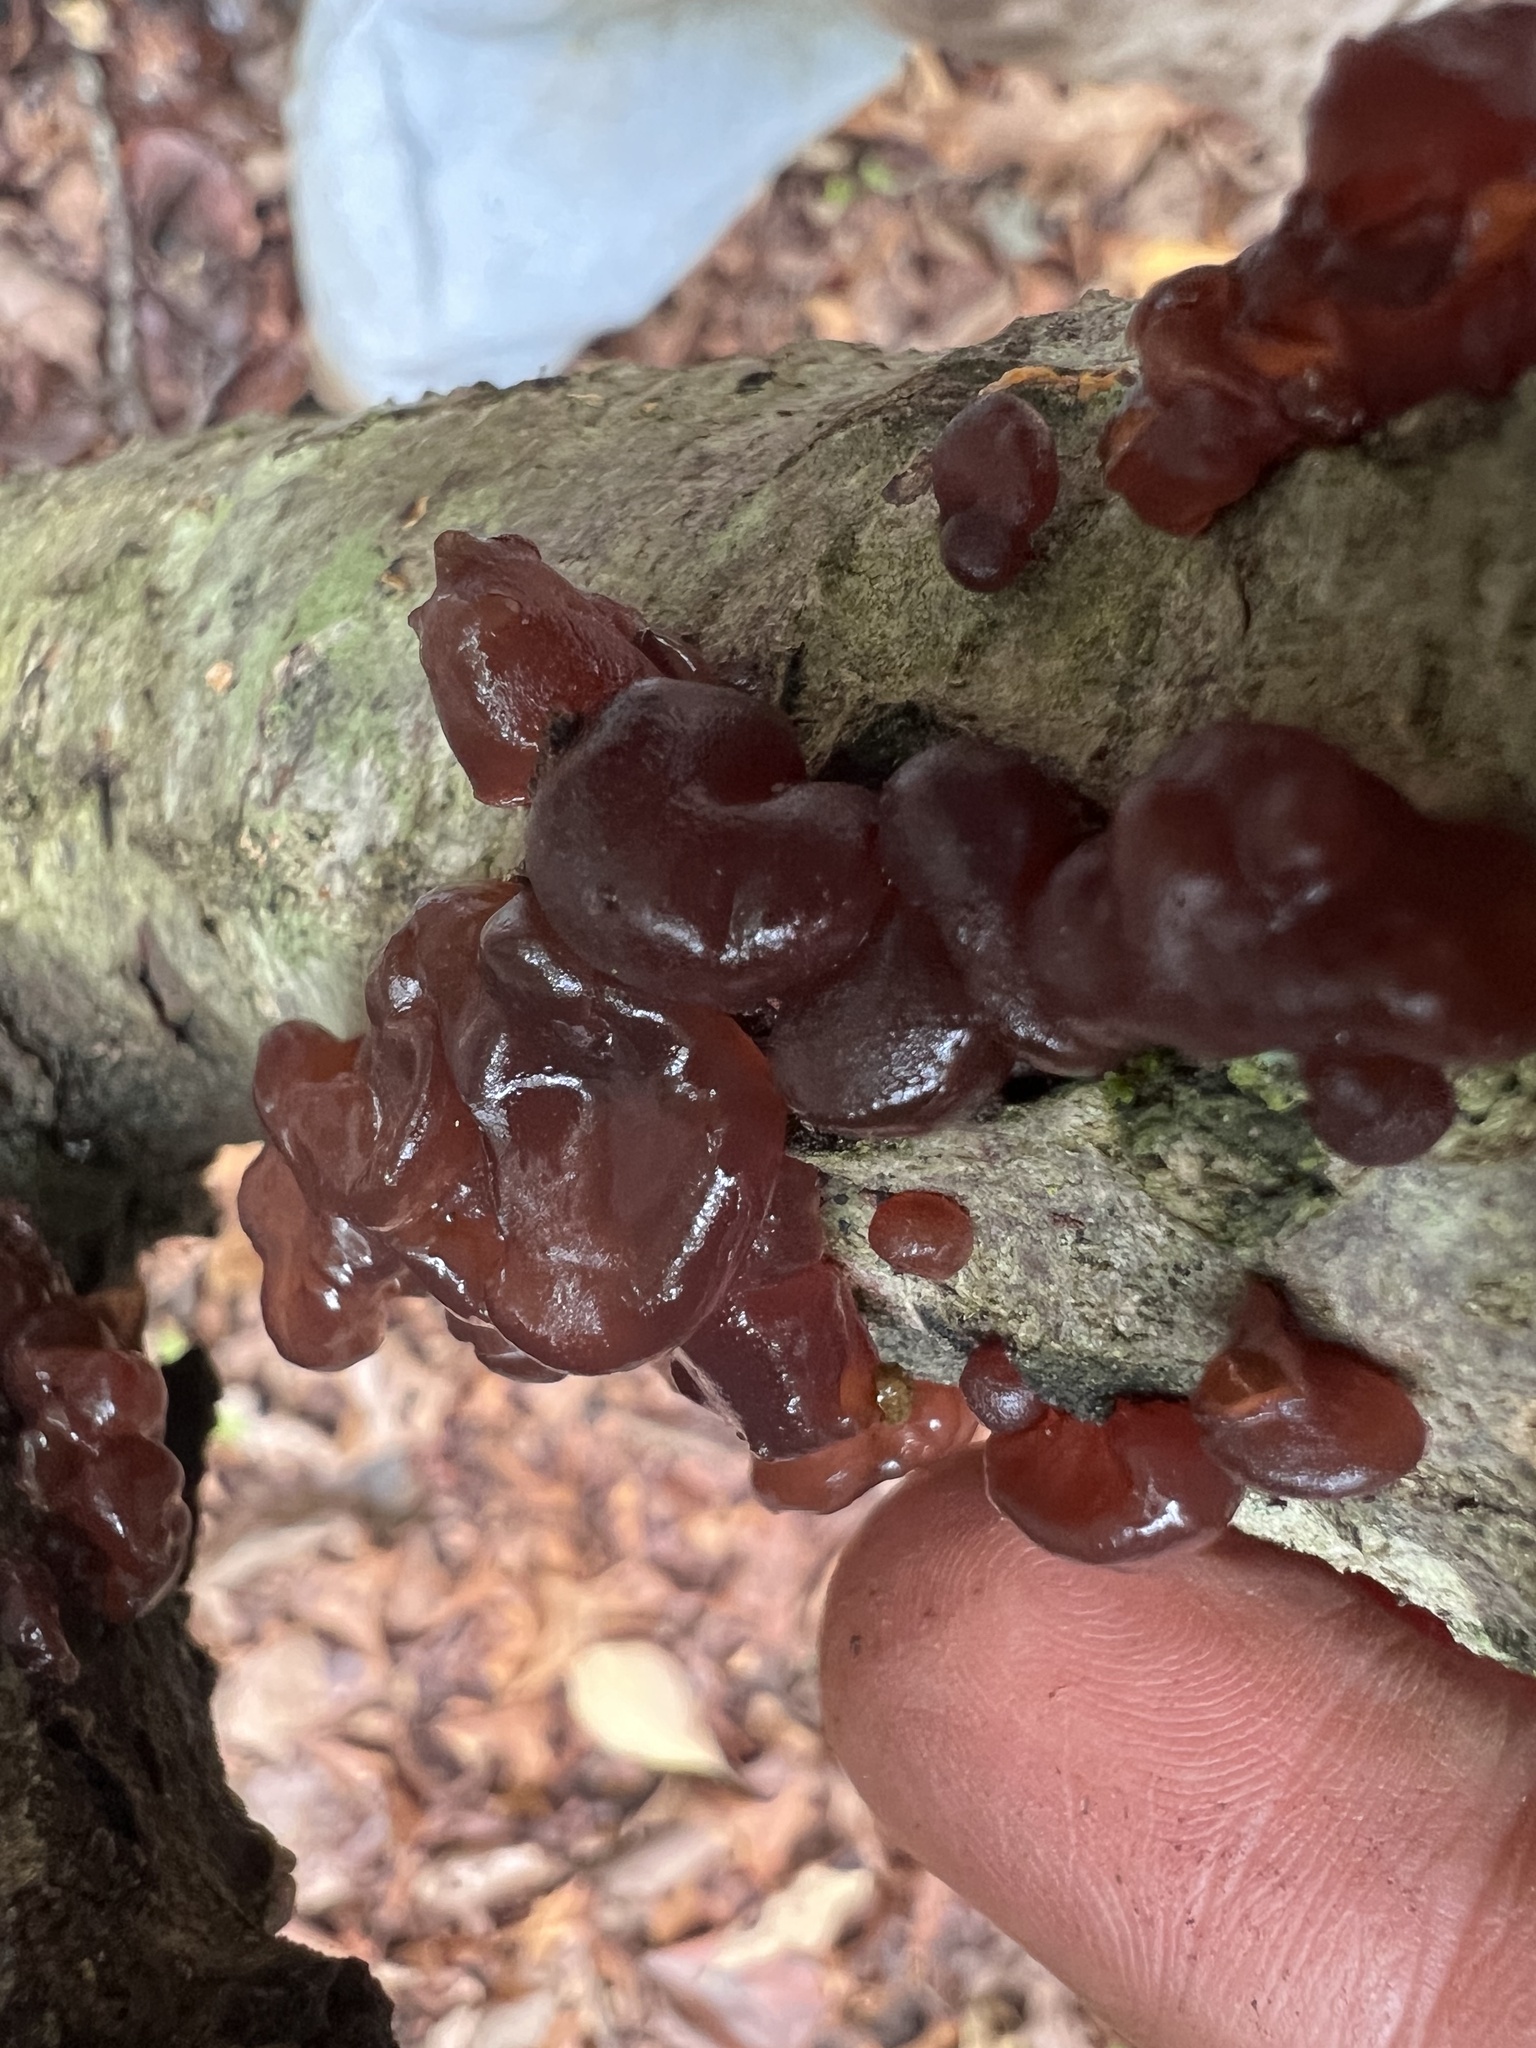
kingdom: Fungi
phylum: Basidiomycota
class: Agaricomycetes
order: Auriculariales
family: Auriculariaceae
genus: Exidia
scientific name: Exidia
